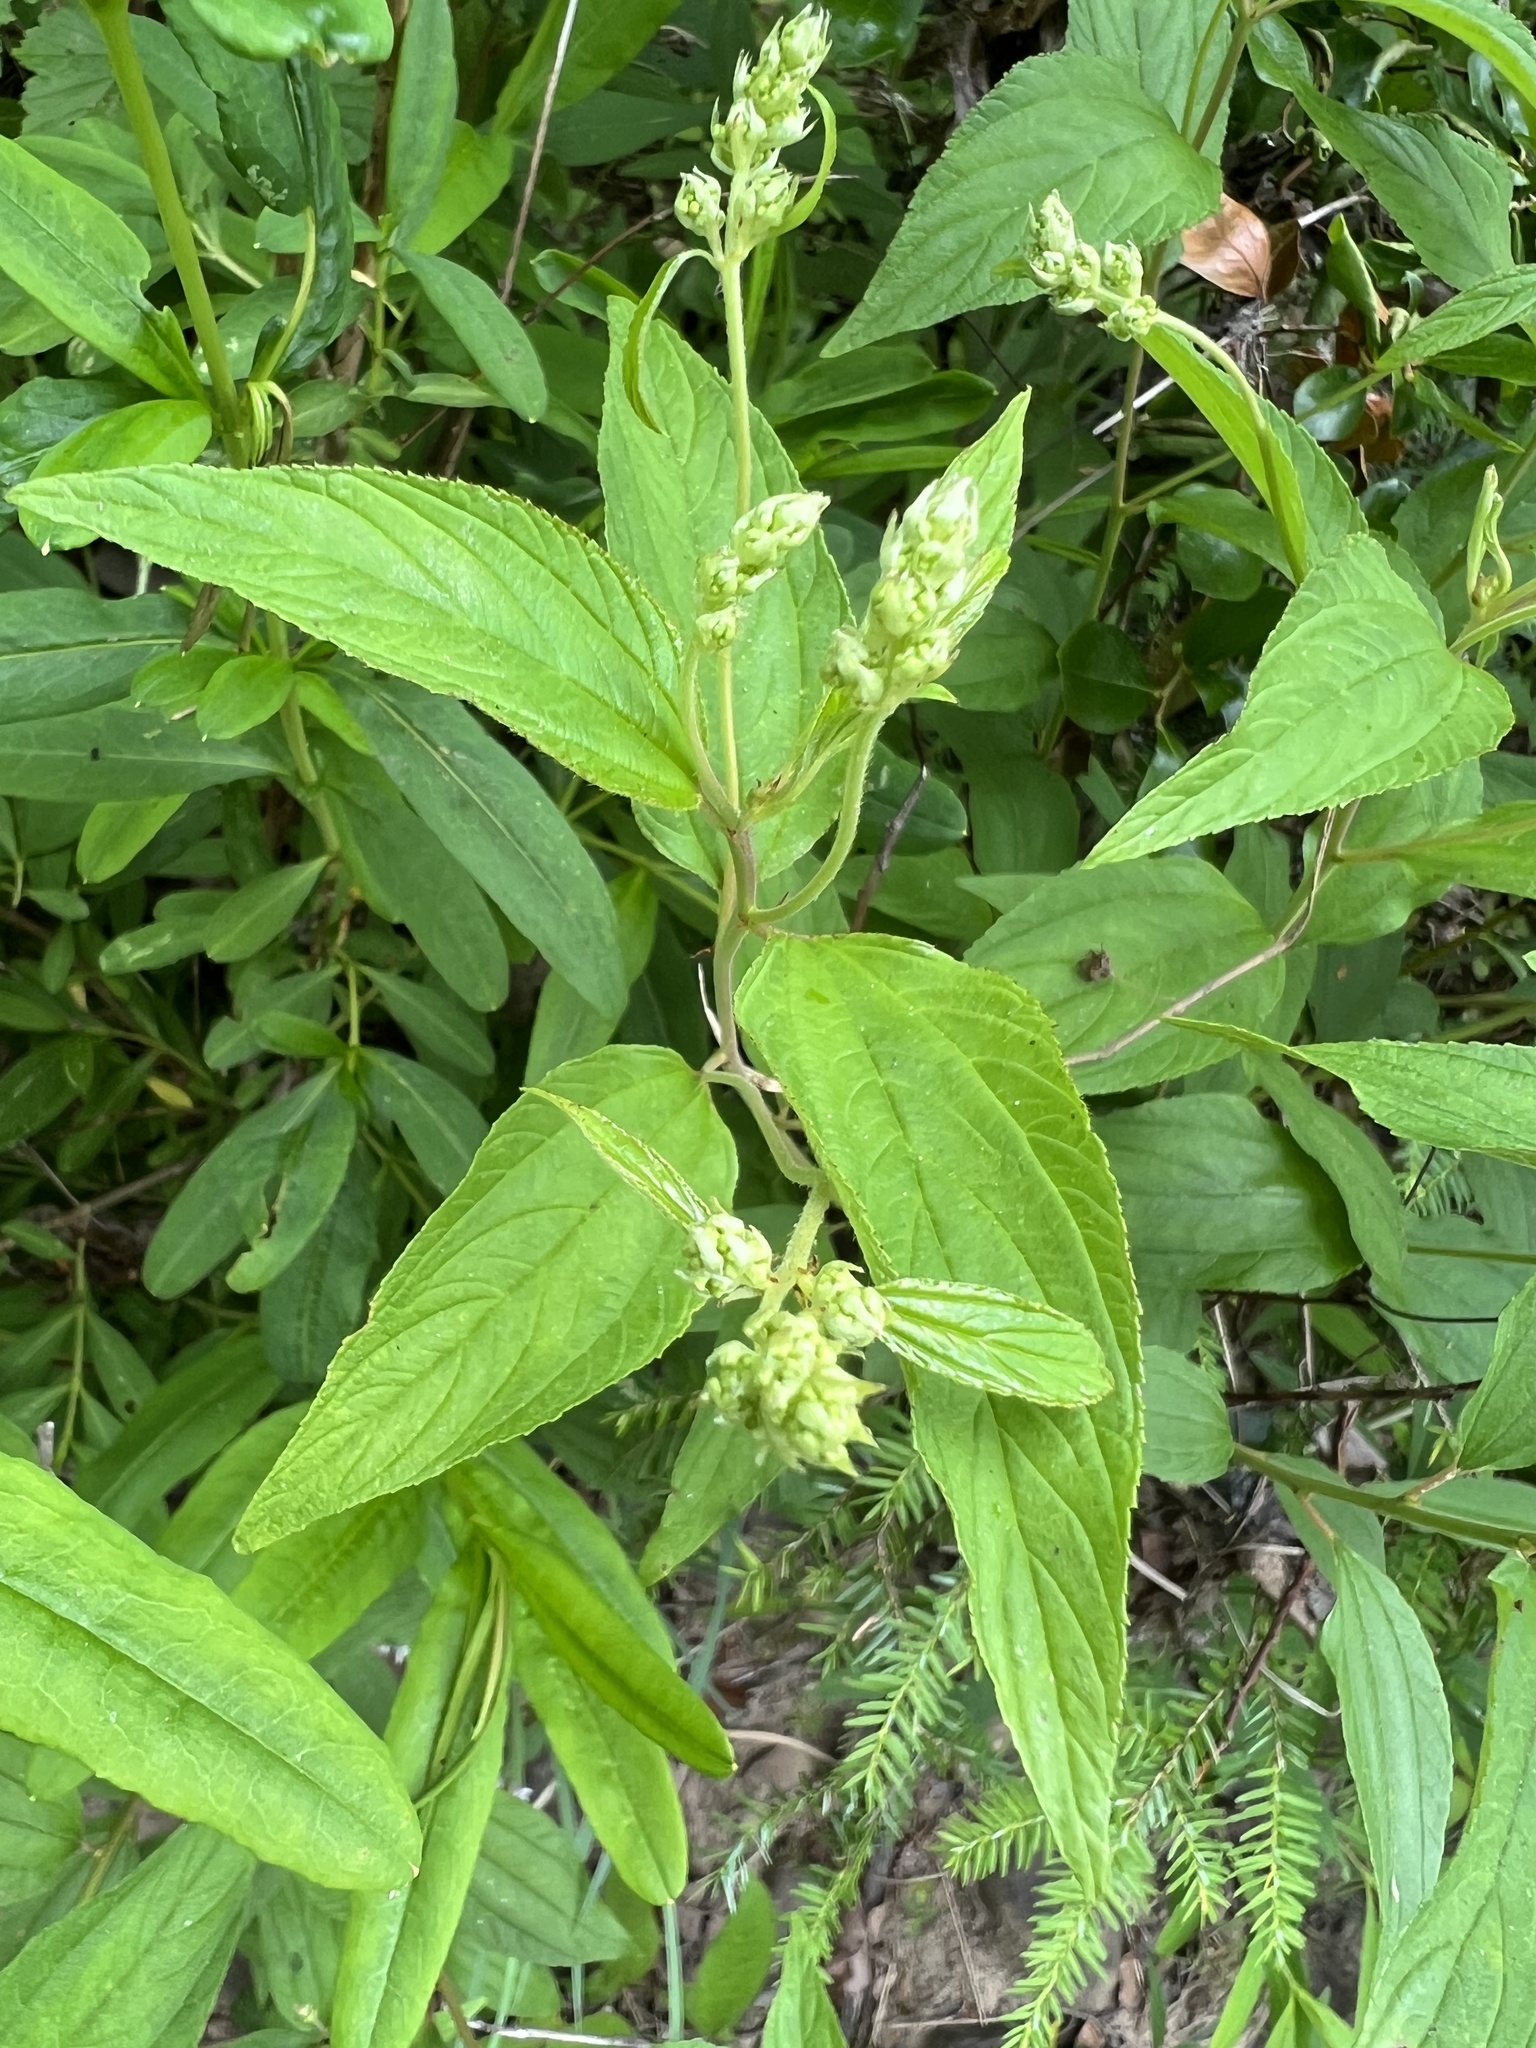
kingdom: Plantae
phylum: Tracheophyta
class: Magnoliopsida
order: Rosales
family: Rhamnaceae
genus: Ceanothus
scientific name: Ceanothus americanus
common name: Redroot
